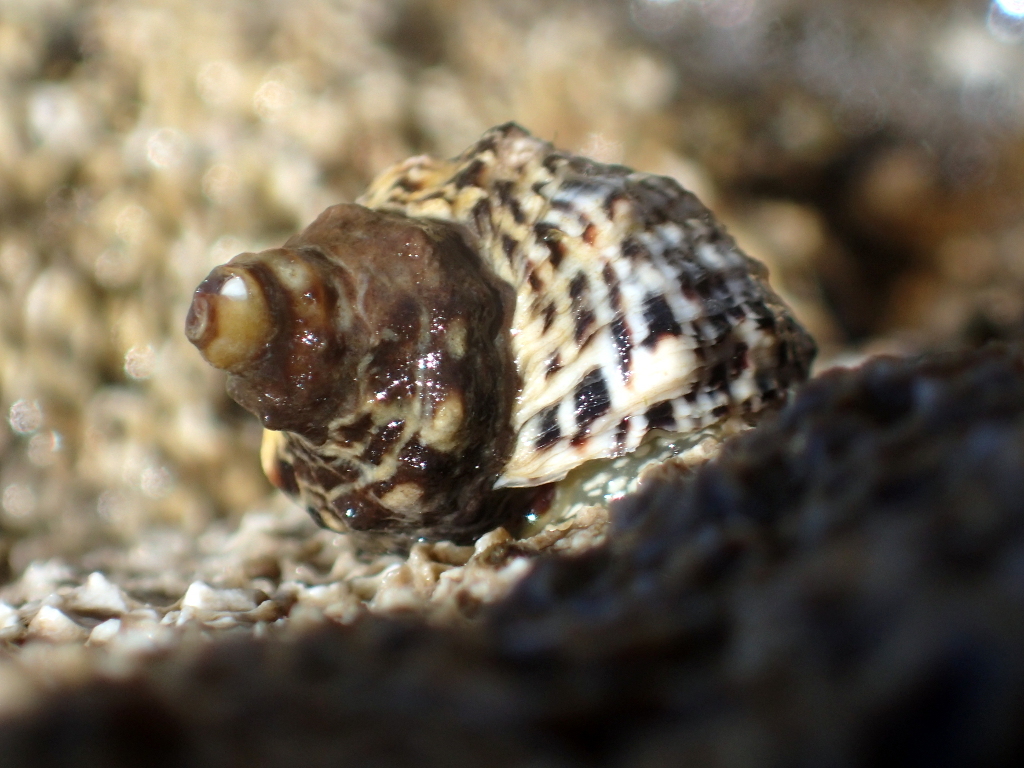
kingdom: Animalia
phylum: Mollusca
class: Gastropoda
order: Neogastropoda
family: Muricidae
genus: Haustrum
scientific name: Haustrum scobina
